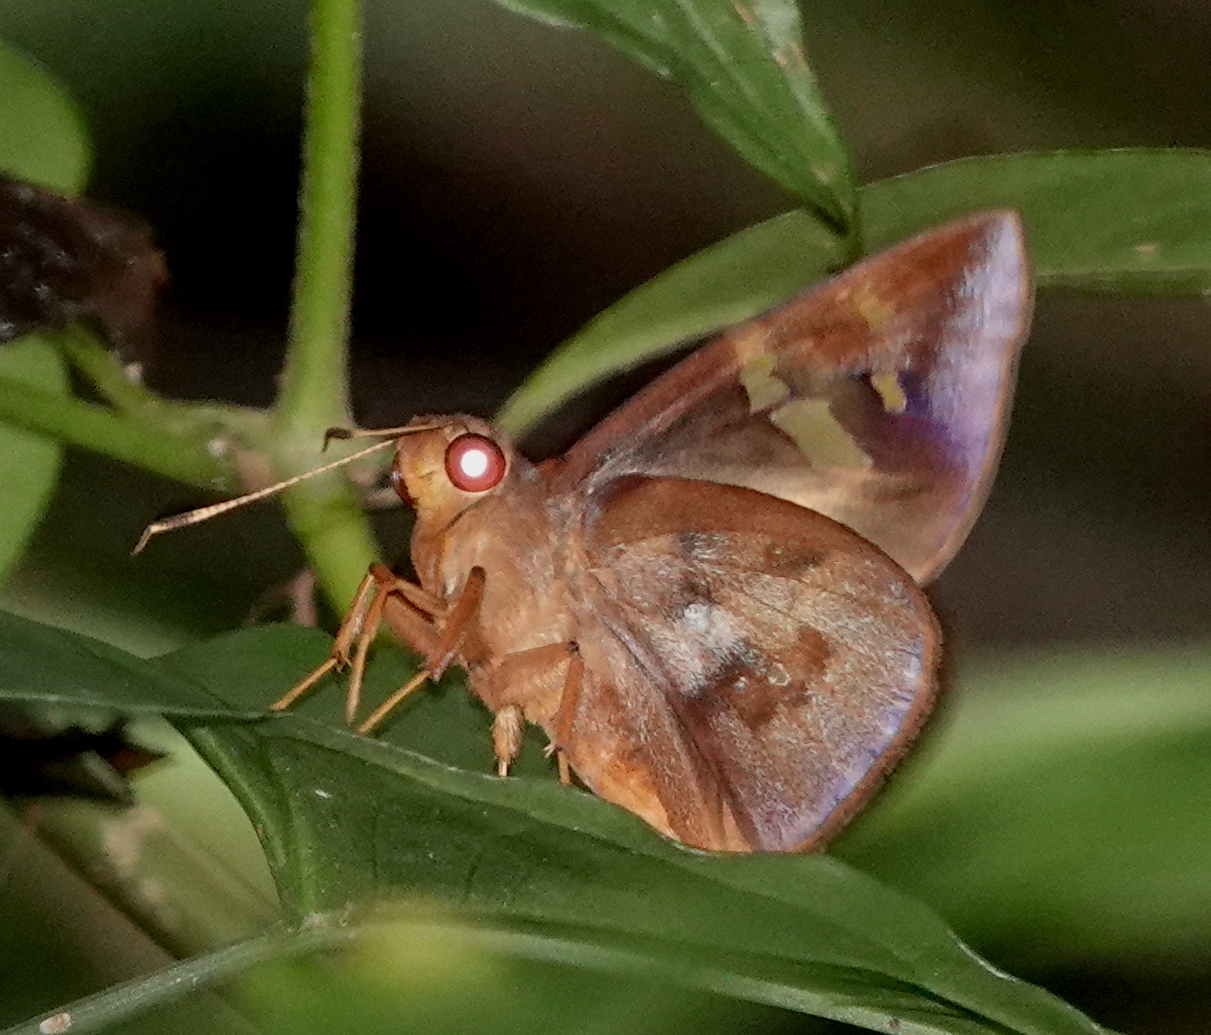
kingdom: Animalia
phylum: Arthropoda
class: Insecta
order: Lepidoptera
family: Hesperiidae
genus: Talides
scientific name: Talides alternata
